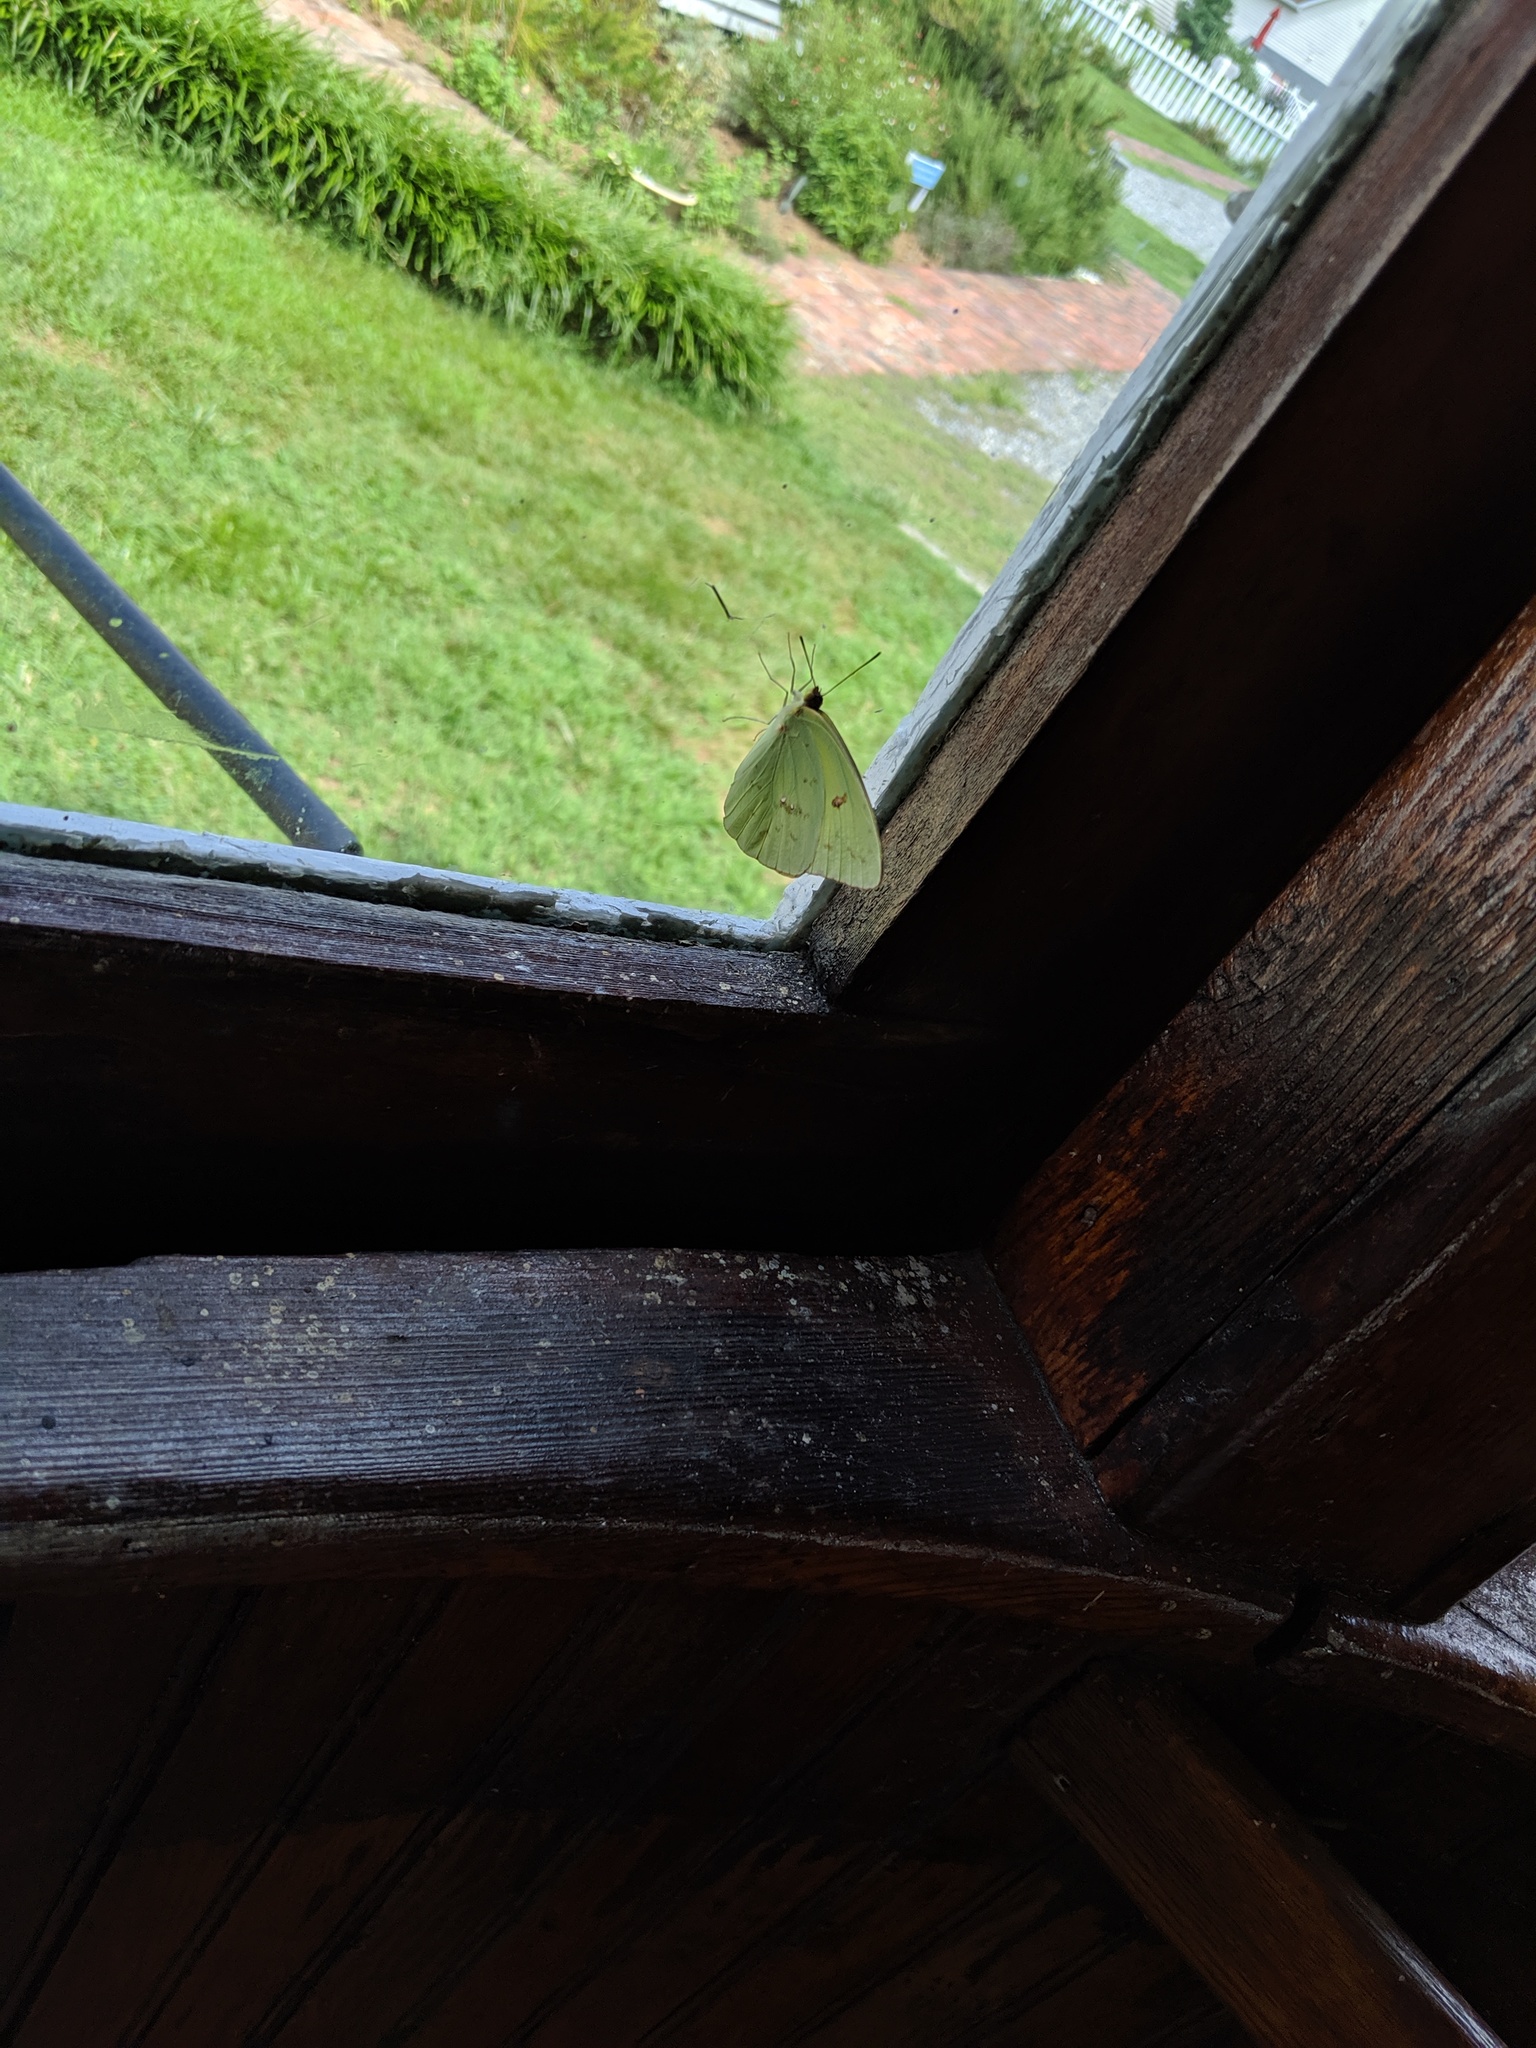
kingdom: Animalia
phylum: Arthropoda
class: Insecta
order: Lepidoptera
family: Pieridae
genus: Phoebis
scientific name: Phoebis sennae
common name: Cloudless sulphur
